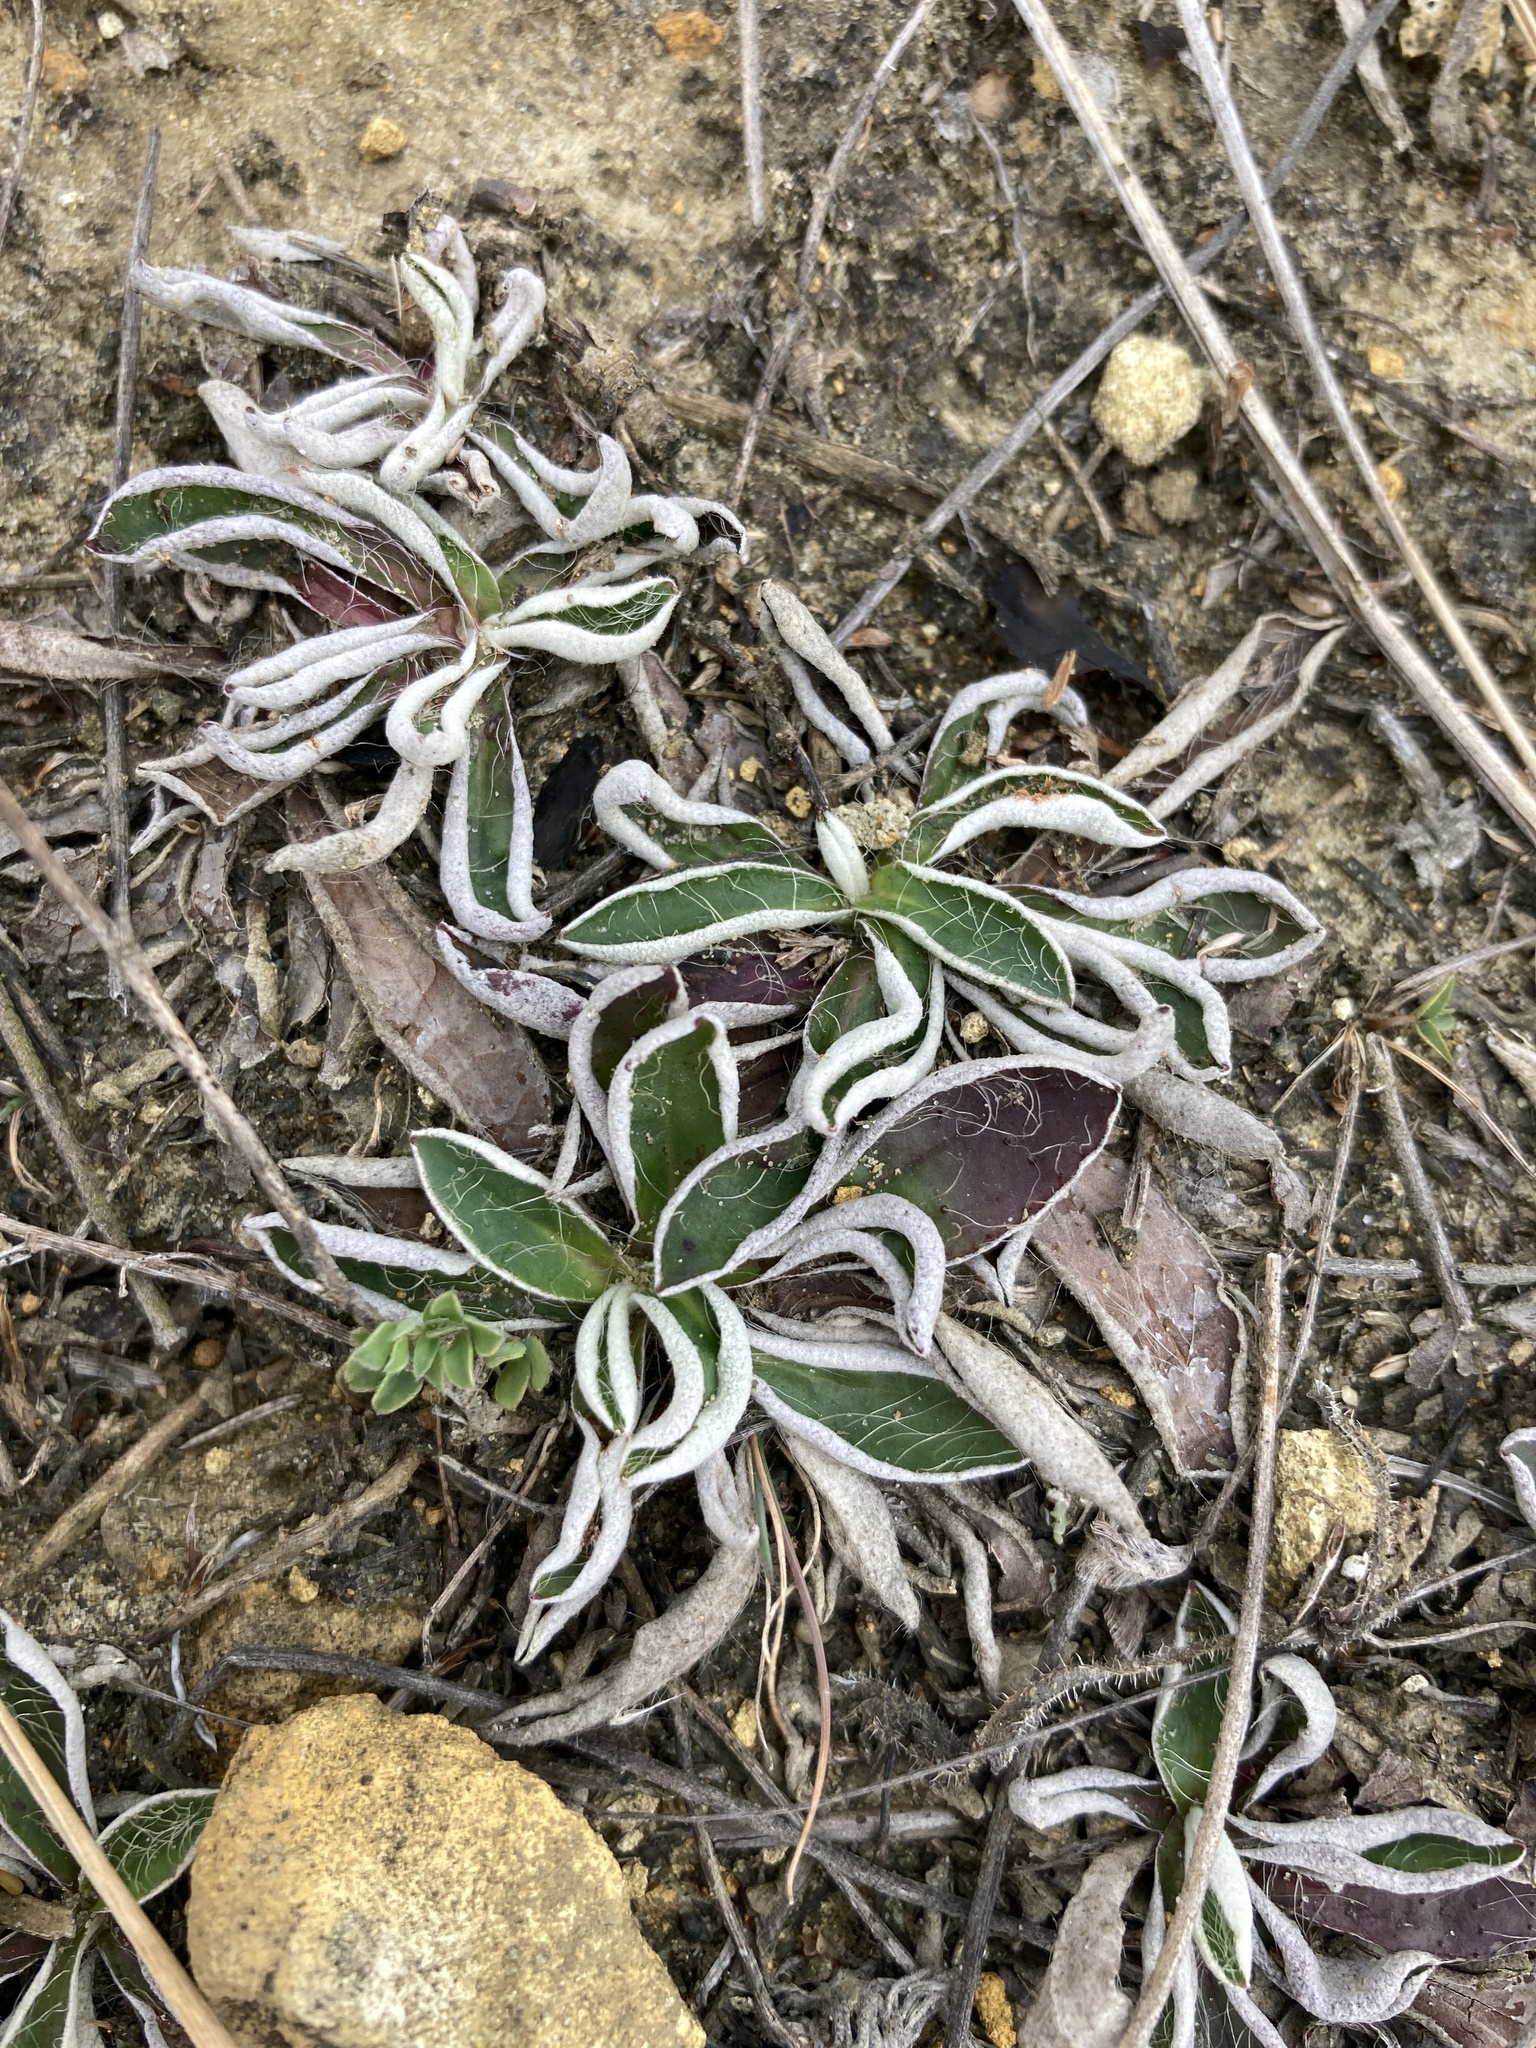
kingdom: Plantae
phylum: Tracheophyta
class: Magnoliopsida
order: Asterales
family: Asteraceae
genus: Pilosella
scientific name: Pilosella officinarum
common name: Mouse-ear hawkweed
